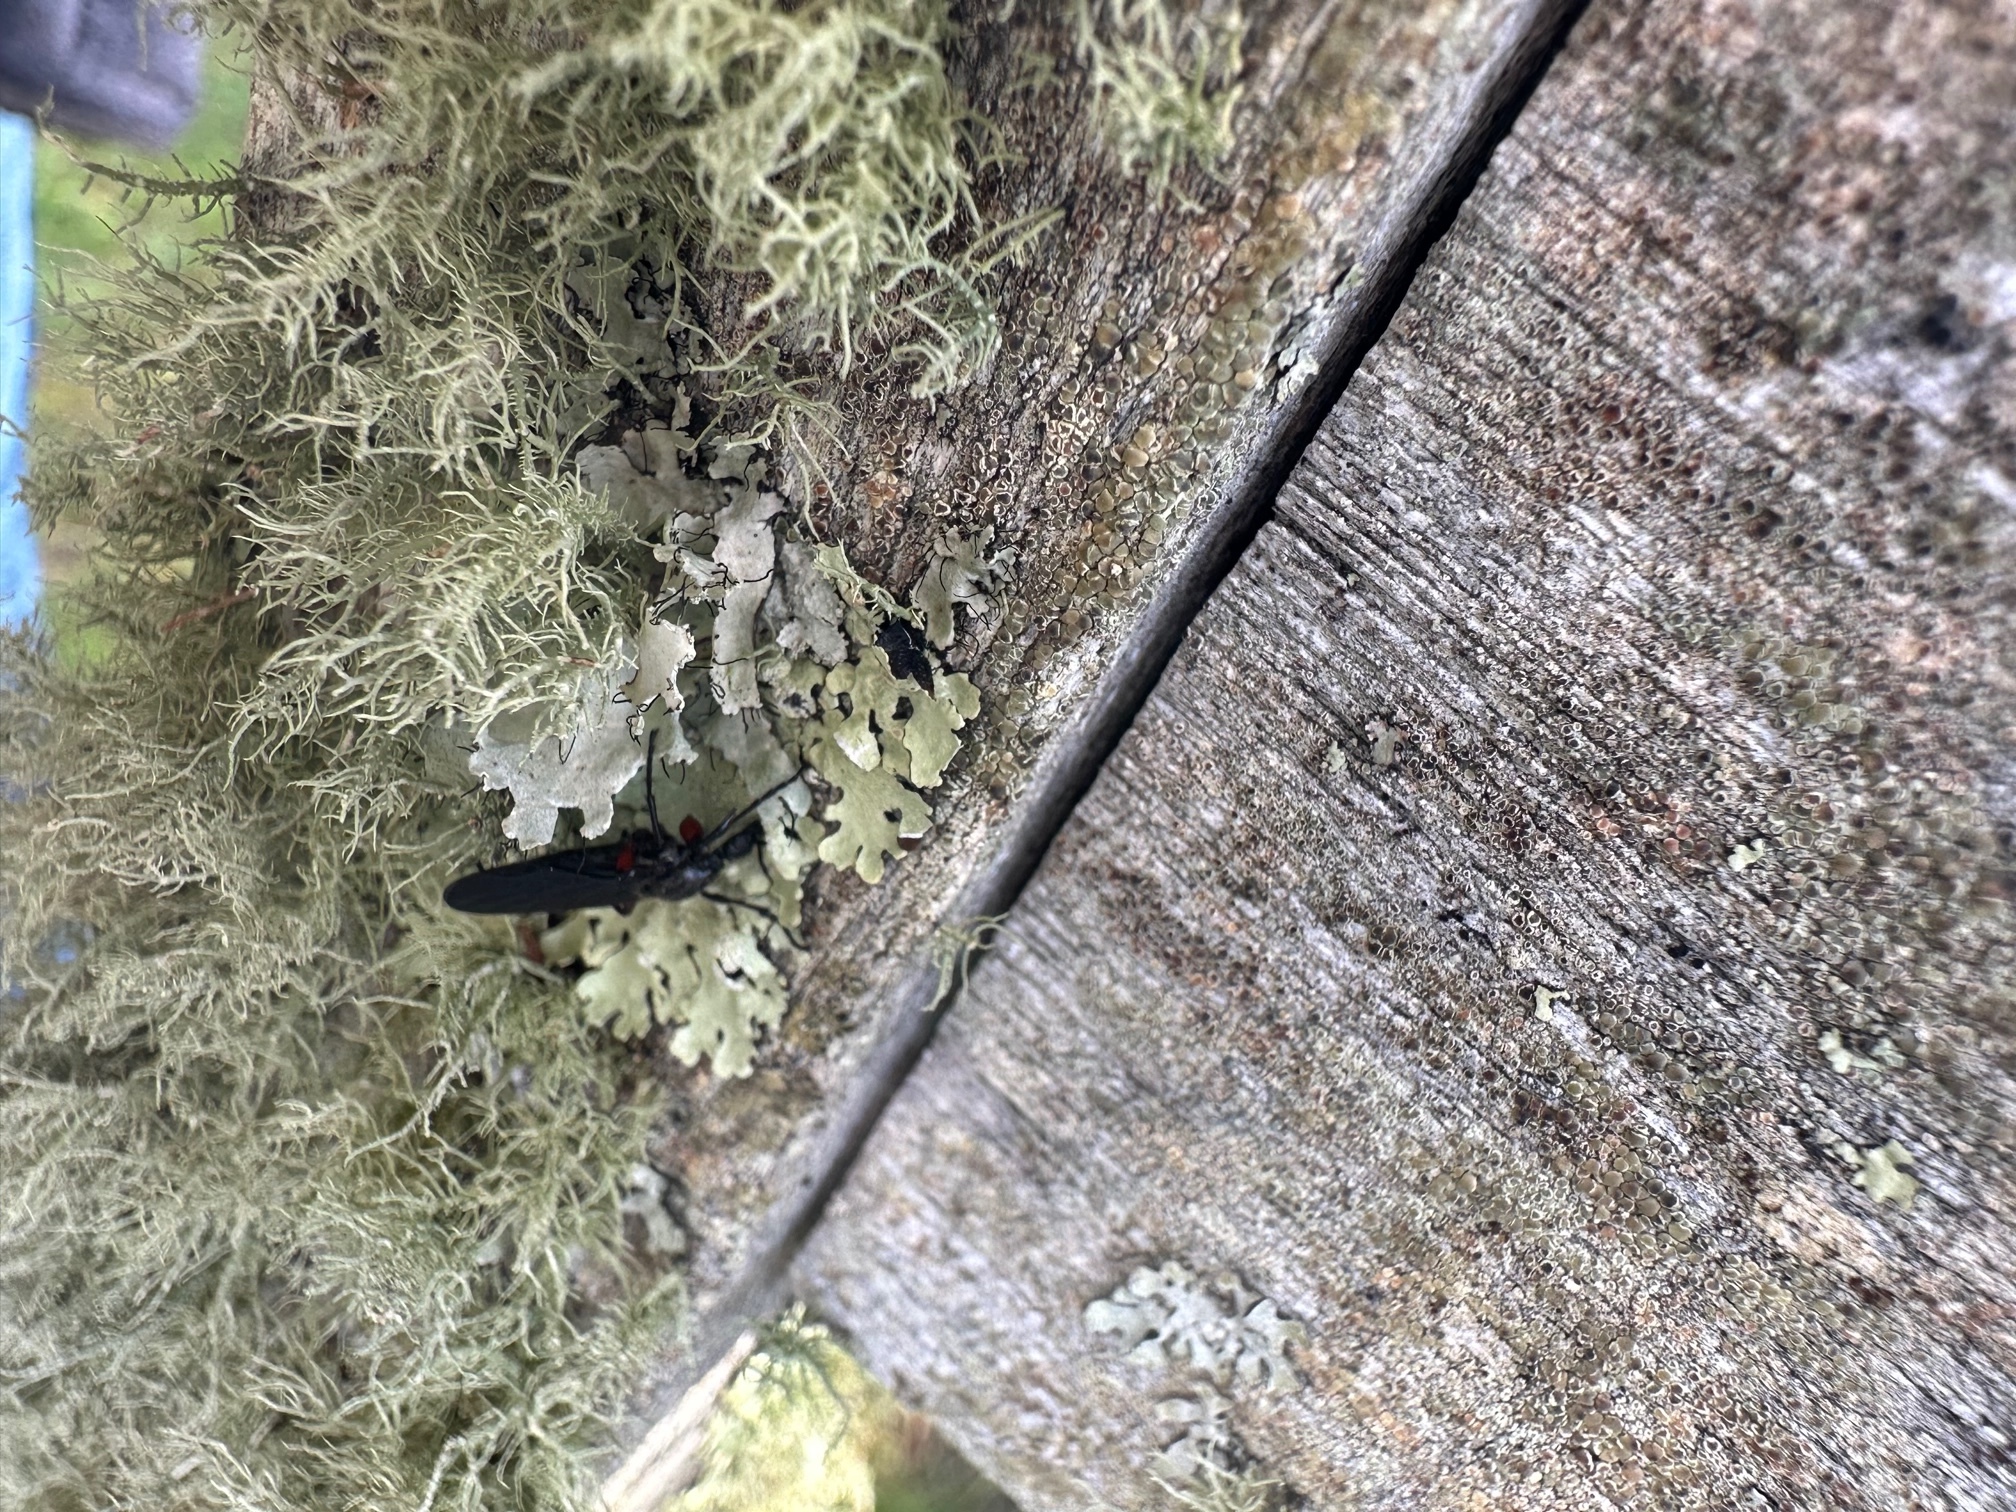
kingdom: Animalia
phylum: Arthropoda
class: Insecta
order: Diptera
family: Bibionidae
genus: Bibio
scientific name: Bibio femoratus
